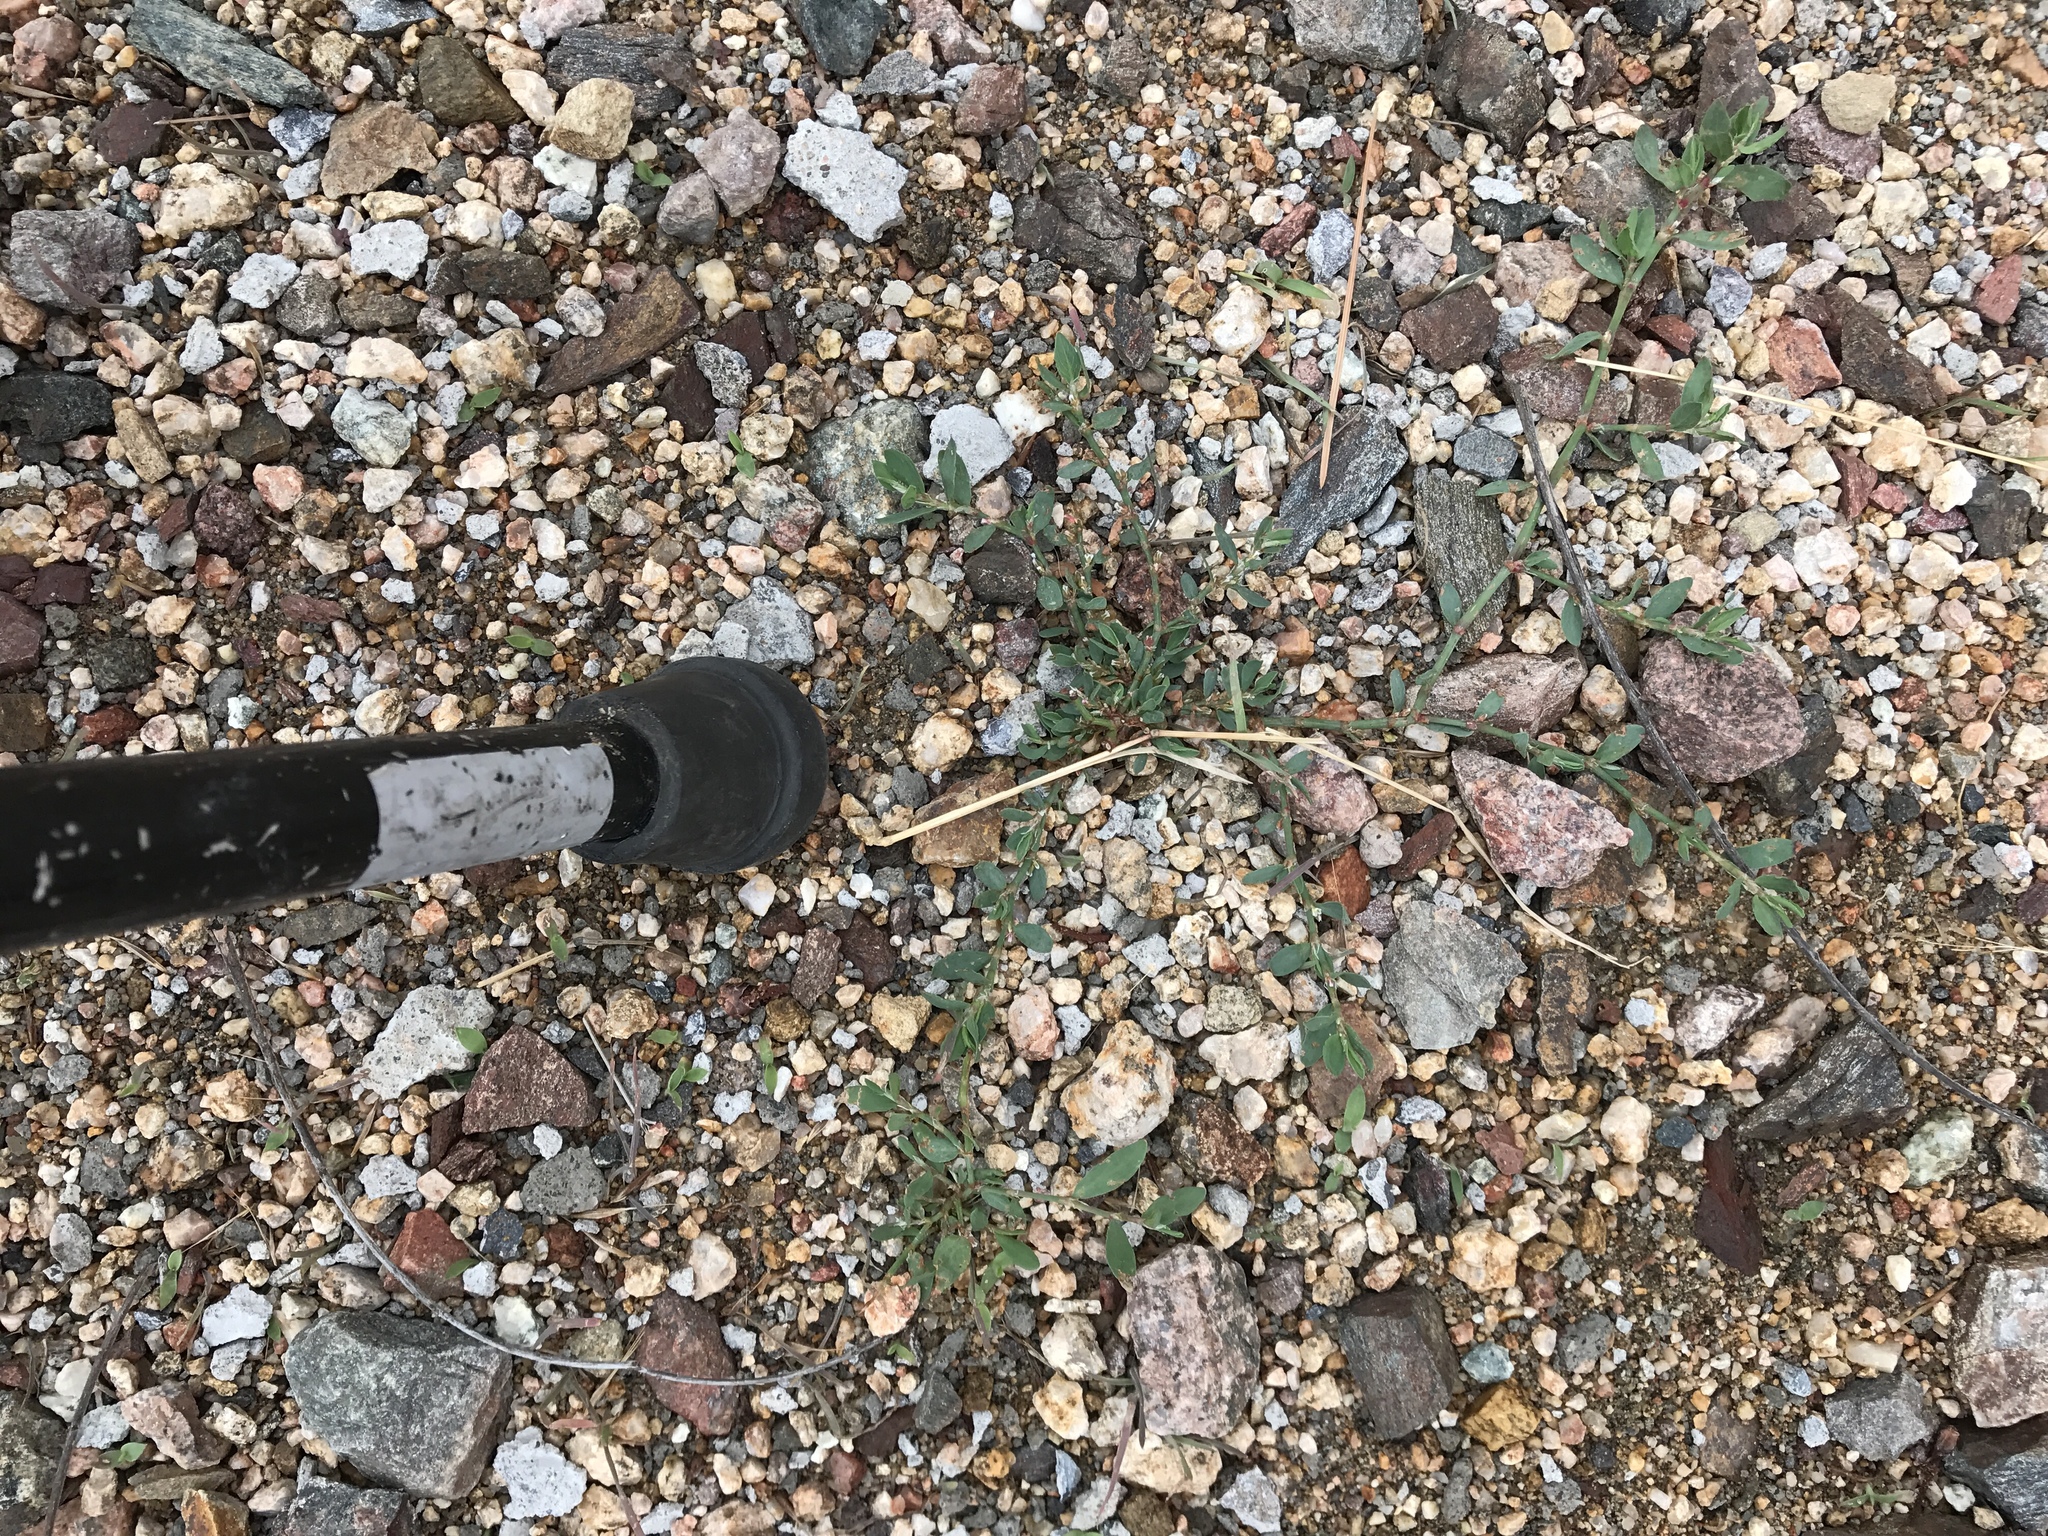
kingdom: Plantae
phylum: Tracheophyta
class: Magnoliopsida
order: Caryophyllales
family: Polygonaceae
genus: Polygonum
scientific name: Polygonum aviculare
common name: Prostrate knotweed
